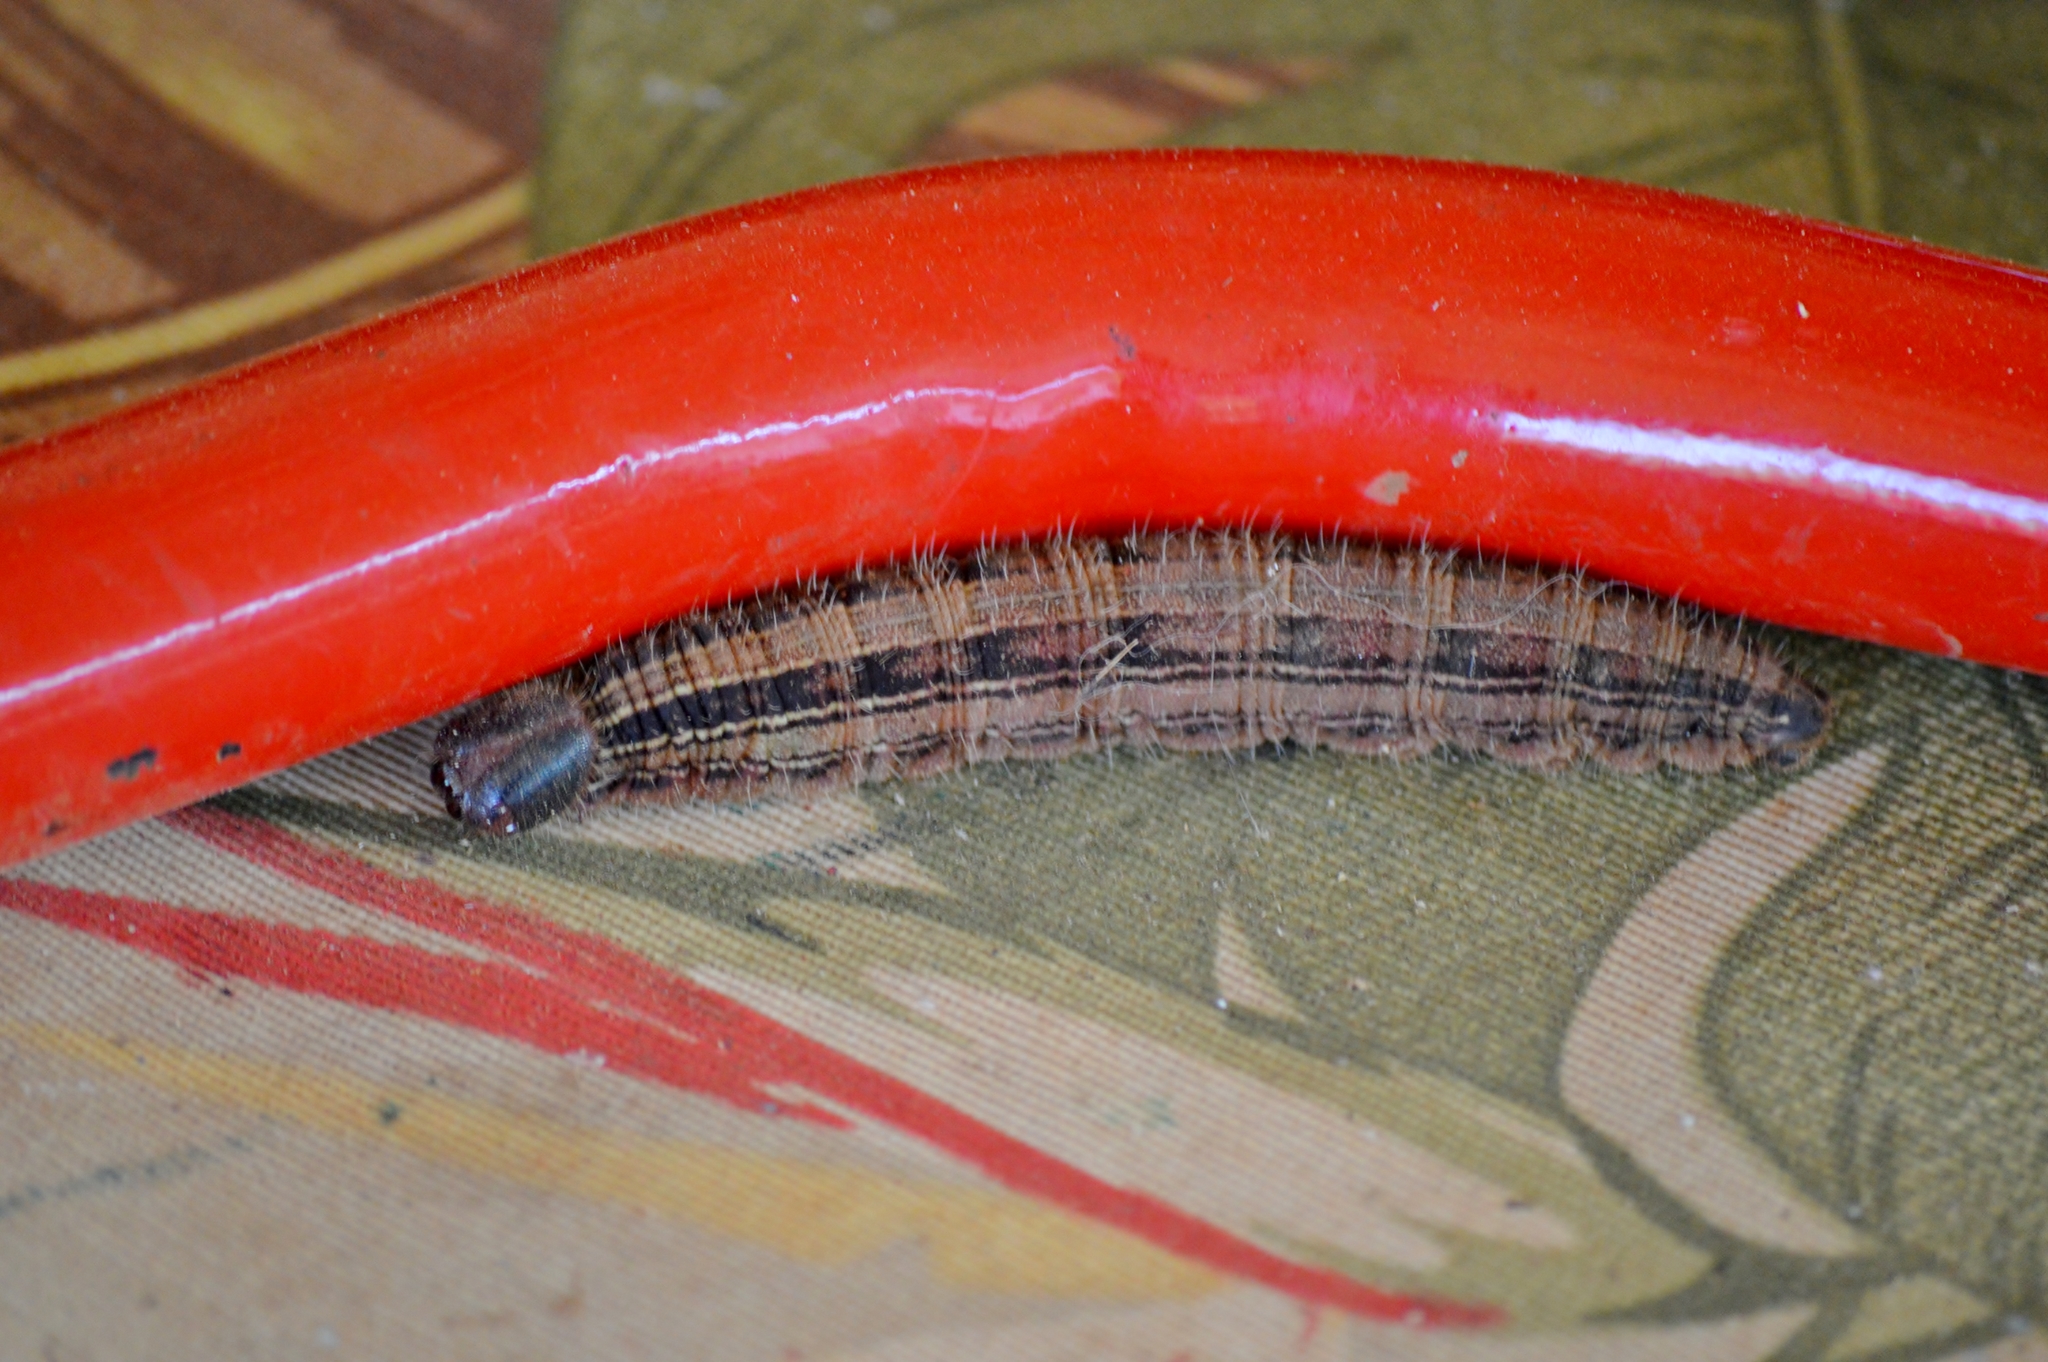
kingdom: Animalia
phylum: Arthropoda
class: Insecta
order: Lepidoptera
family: Nymphalidae
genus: Brassolis
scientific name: Brassolis sophorae
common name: Coconut caterpillar
